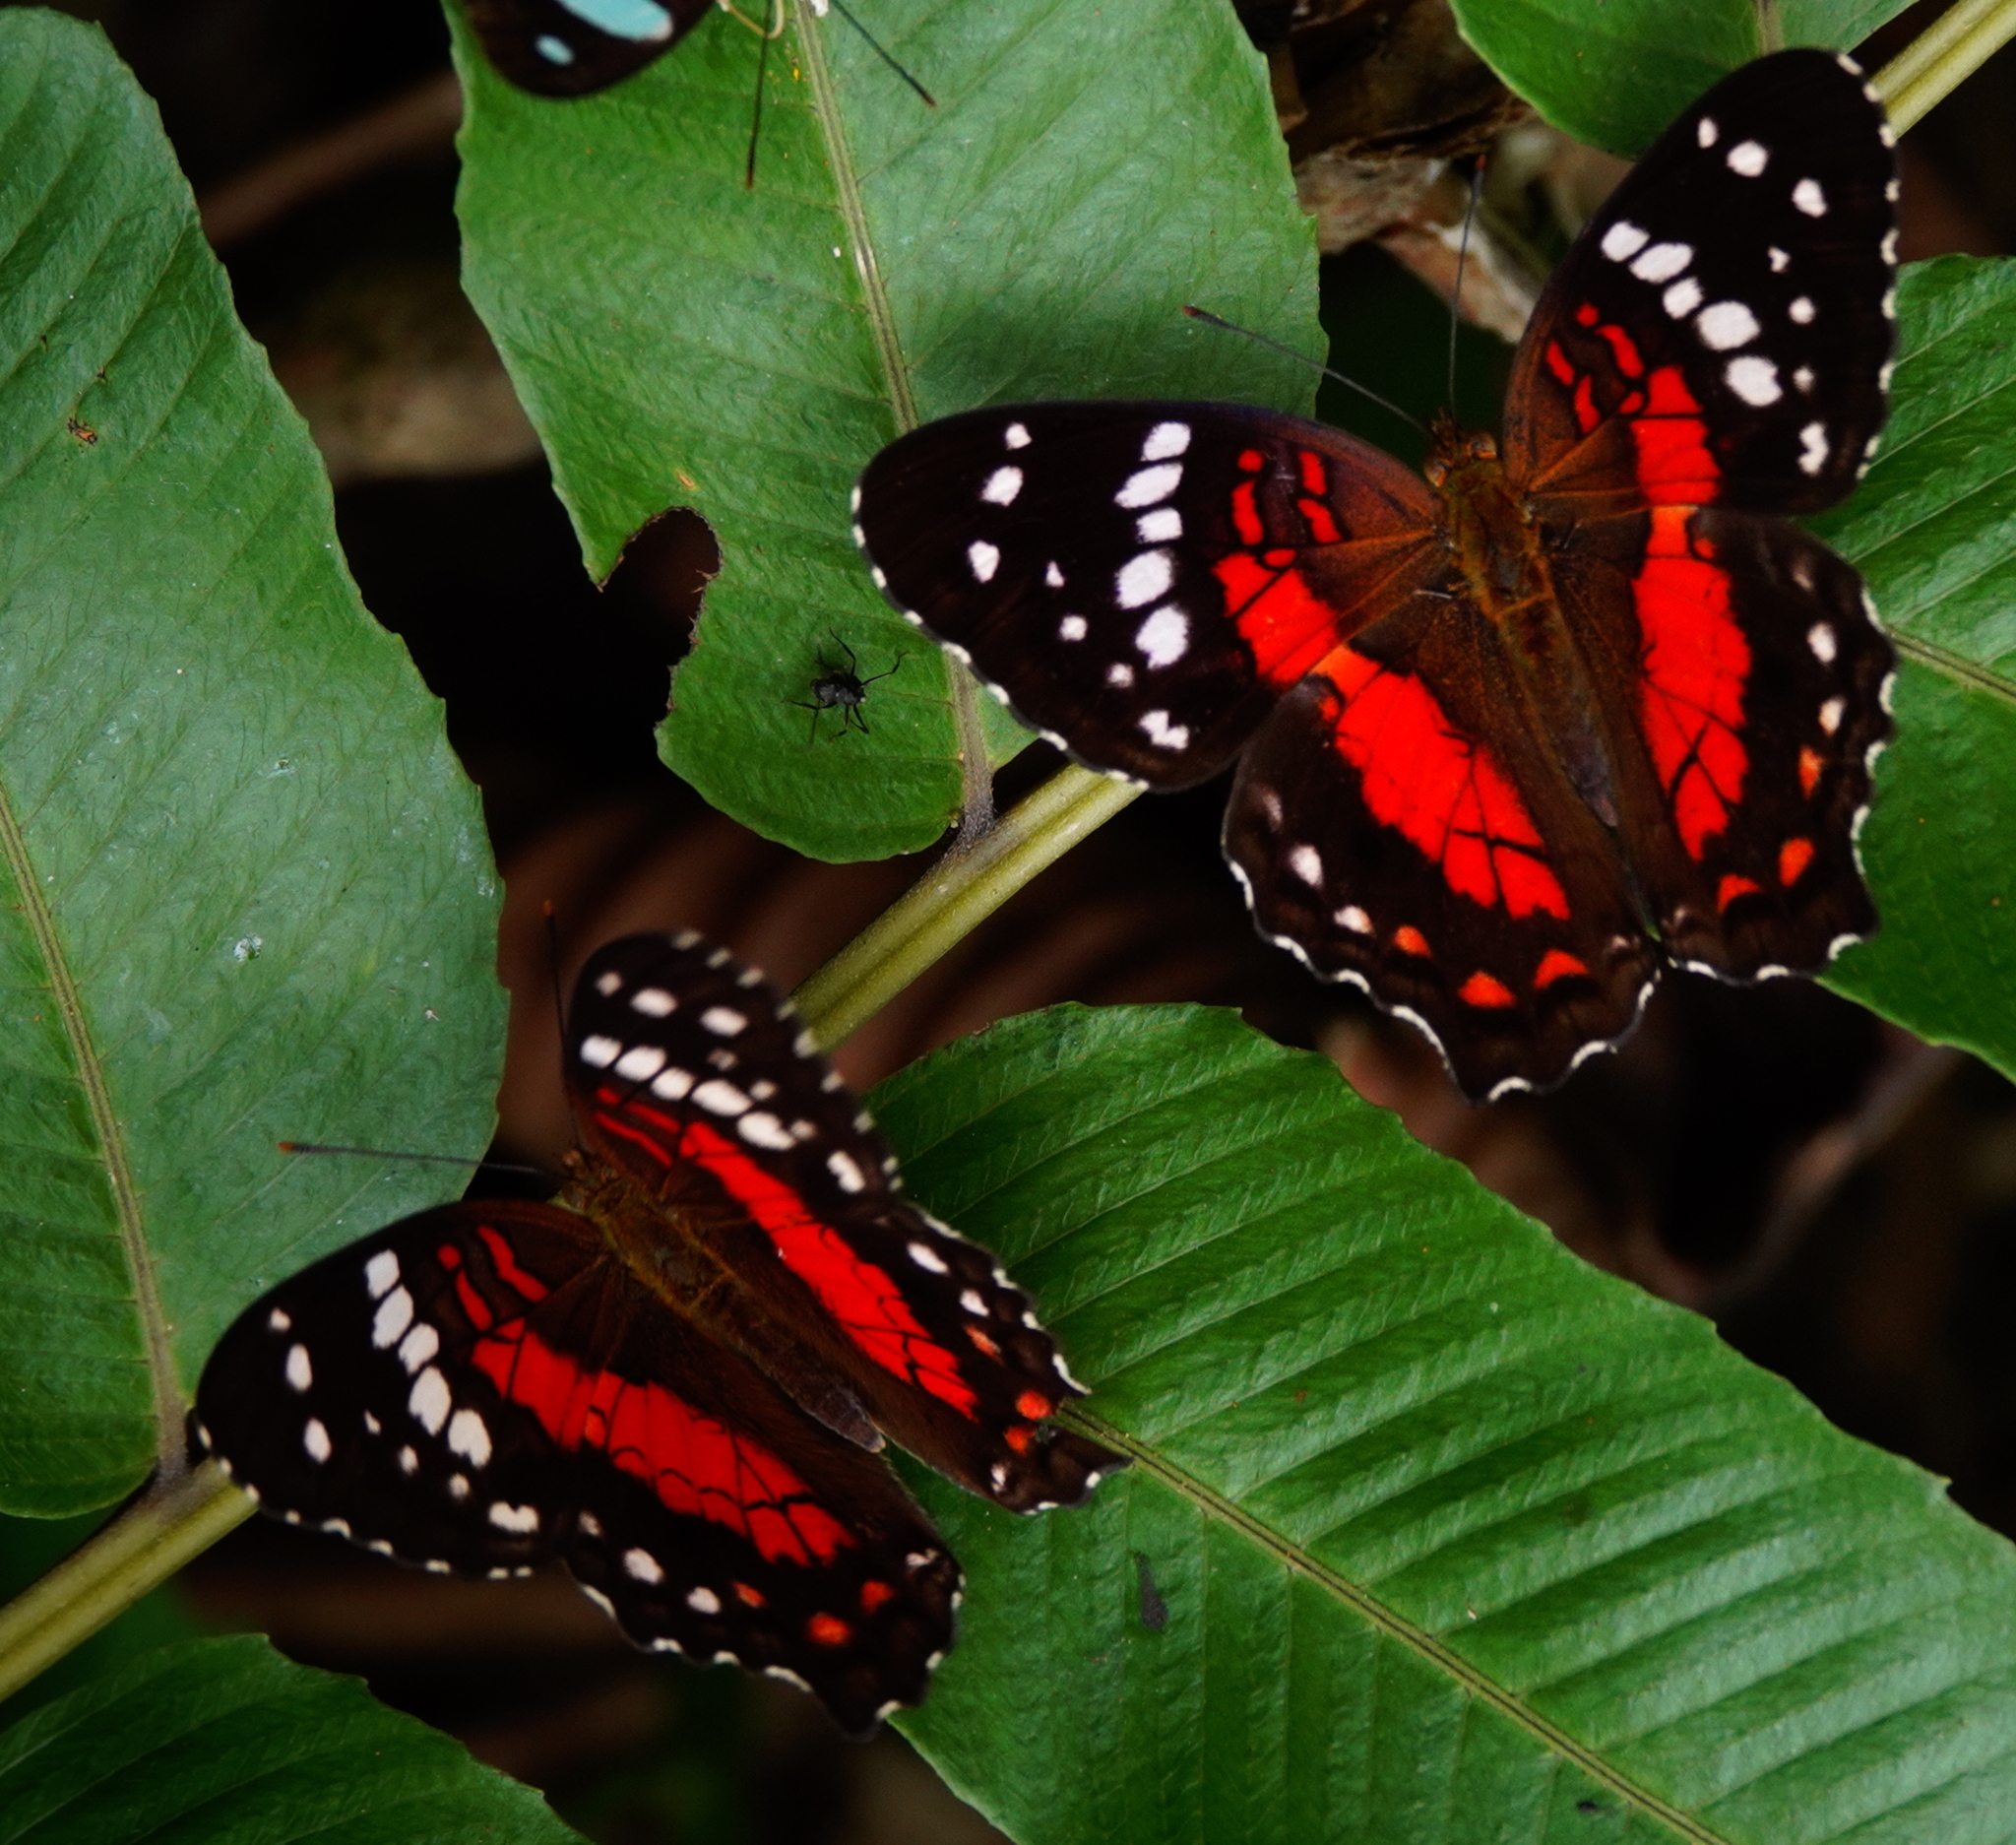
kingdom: Animalia
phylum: Arthropoda
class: Insecta
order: Lepidoptera
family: Nymphalidae
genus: Anartia
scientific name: Anartia amathea
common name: Red peacock
